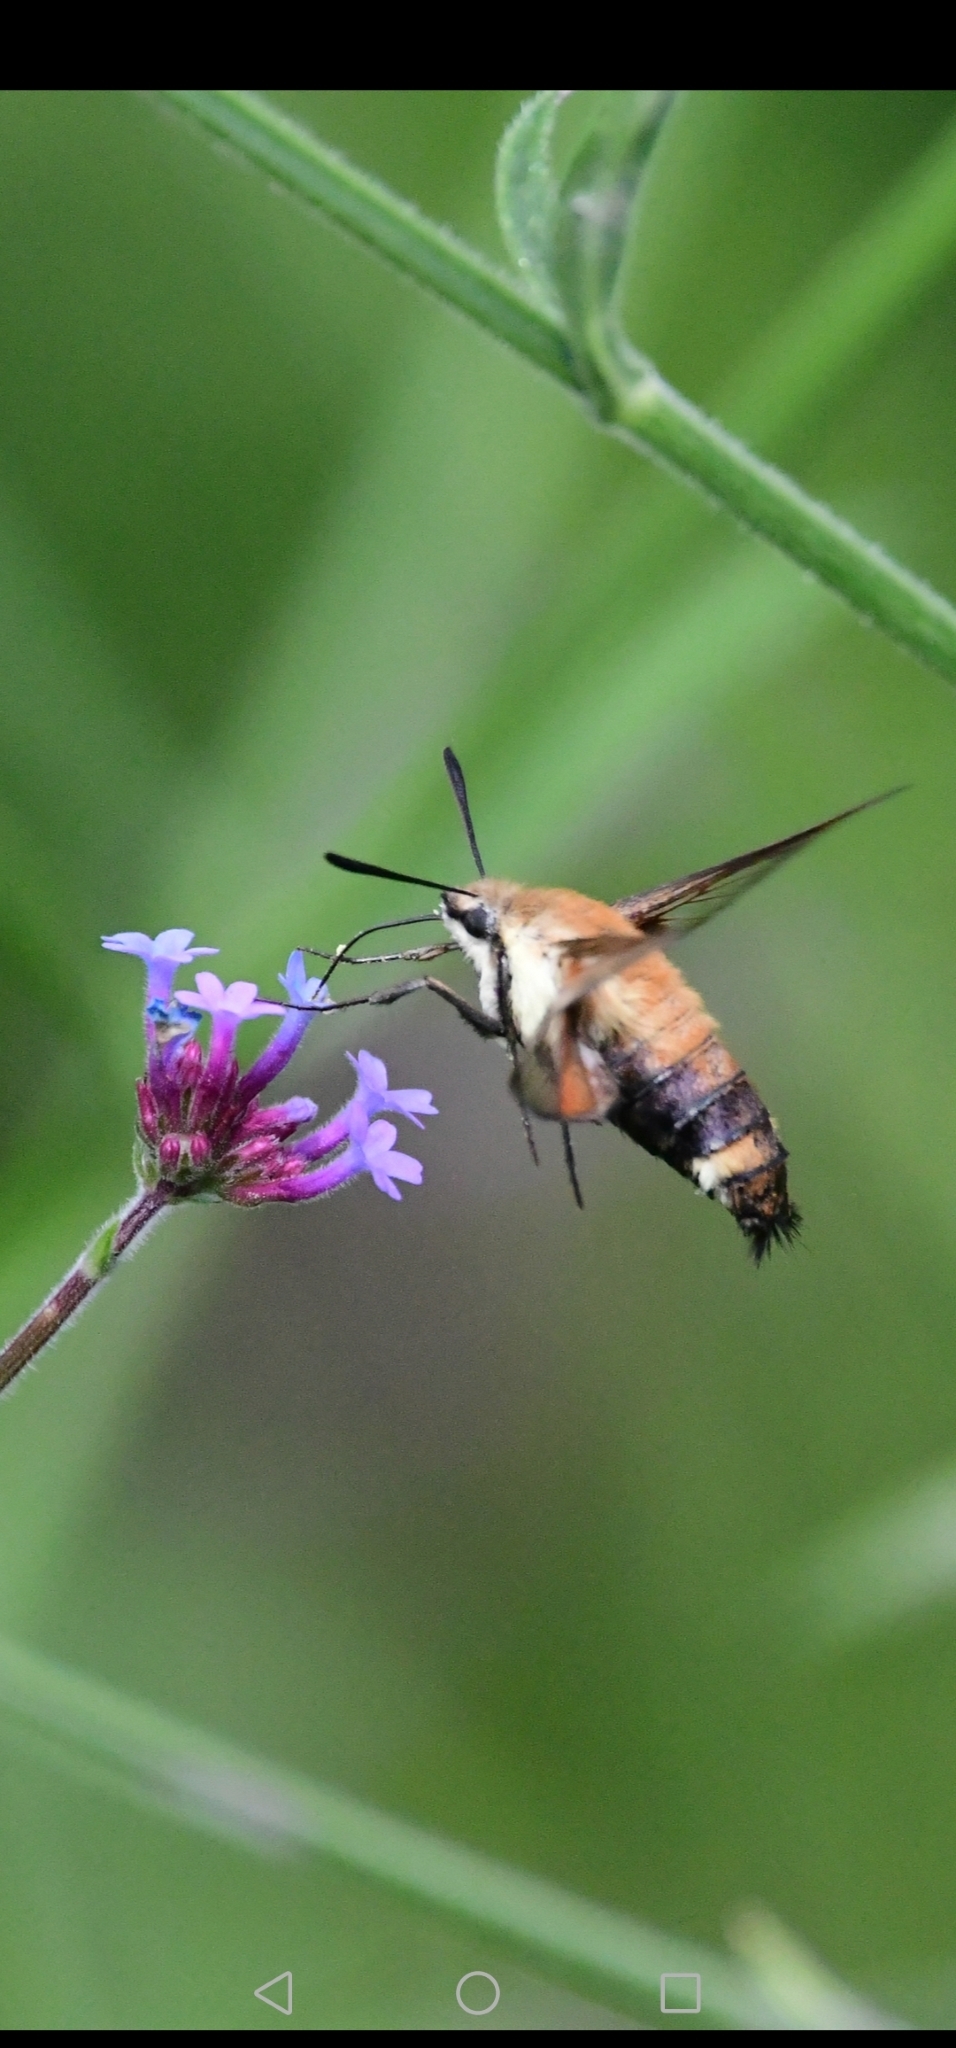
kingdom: Animalia
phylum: Arthropoda
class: Insecta
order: Lepidoptera
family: Sphingidae
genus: Hemaris
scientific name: Hemaris diffinis
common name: Bumblebee moth
